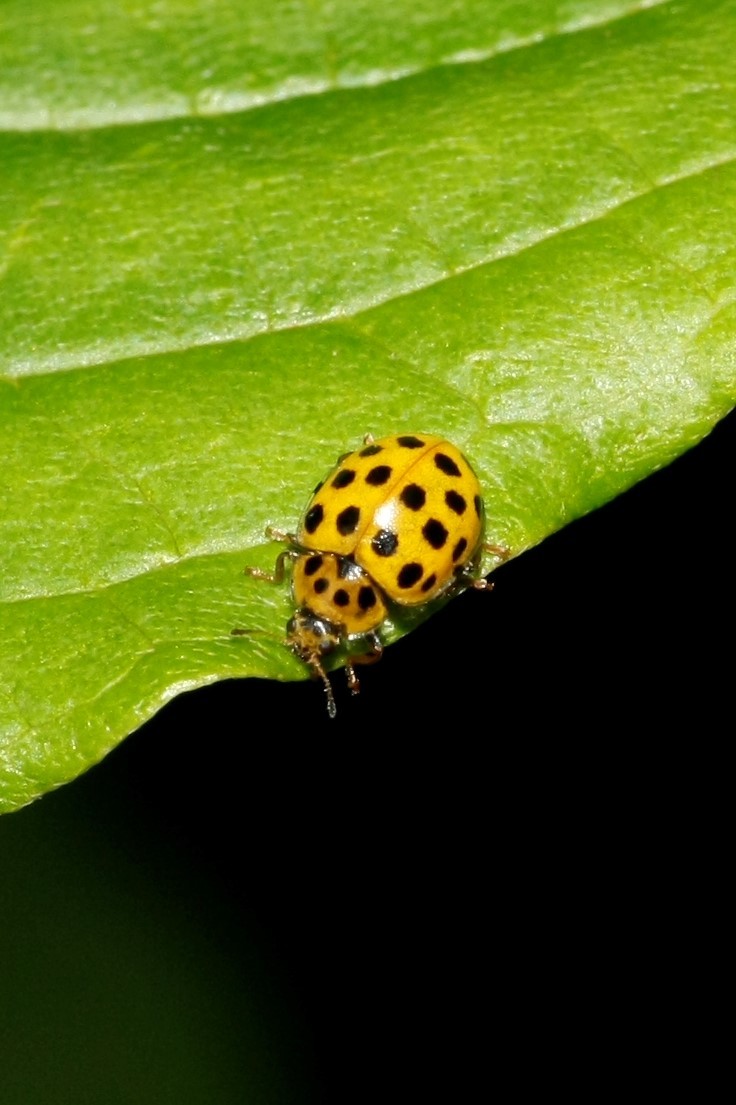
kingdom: Animalia
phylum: Arthropoda
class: Insecta
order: Coleoptera
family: Coccinellidae
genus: Psyllobora
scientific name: Psyllobora vigintiduopunctata
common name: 22-spot ladybird
